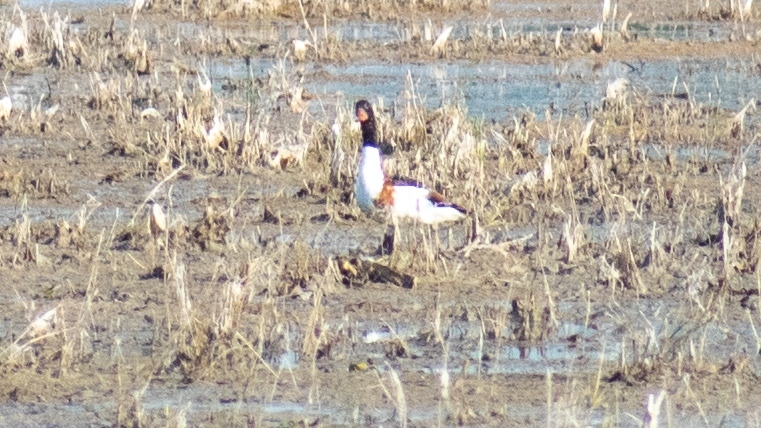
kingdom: Animalia
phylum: Chordata
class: Aves
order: Anseriformes
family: Anatidae
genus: Tadorna
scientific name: Tadorna tadorna
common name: Common shelduck
